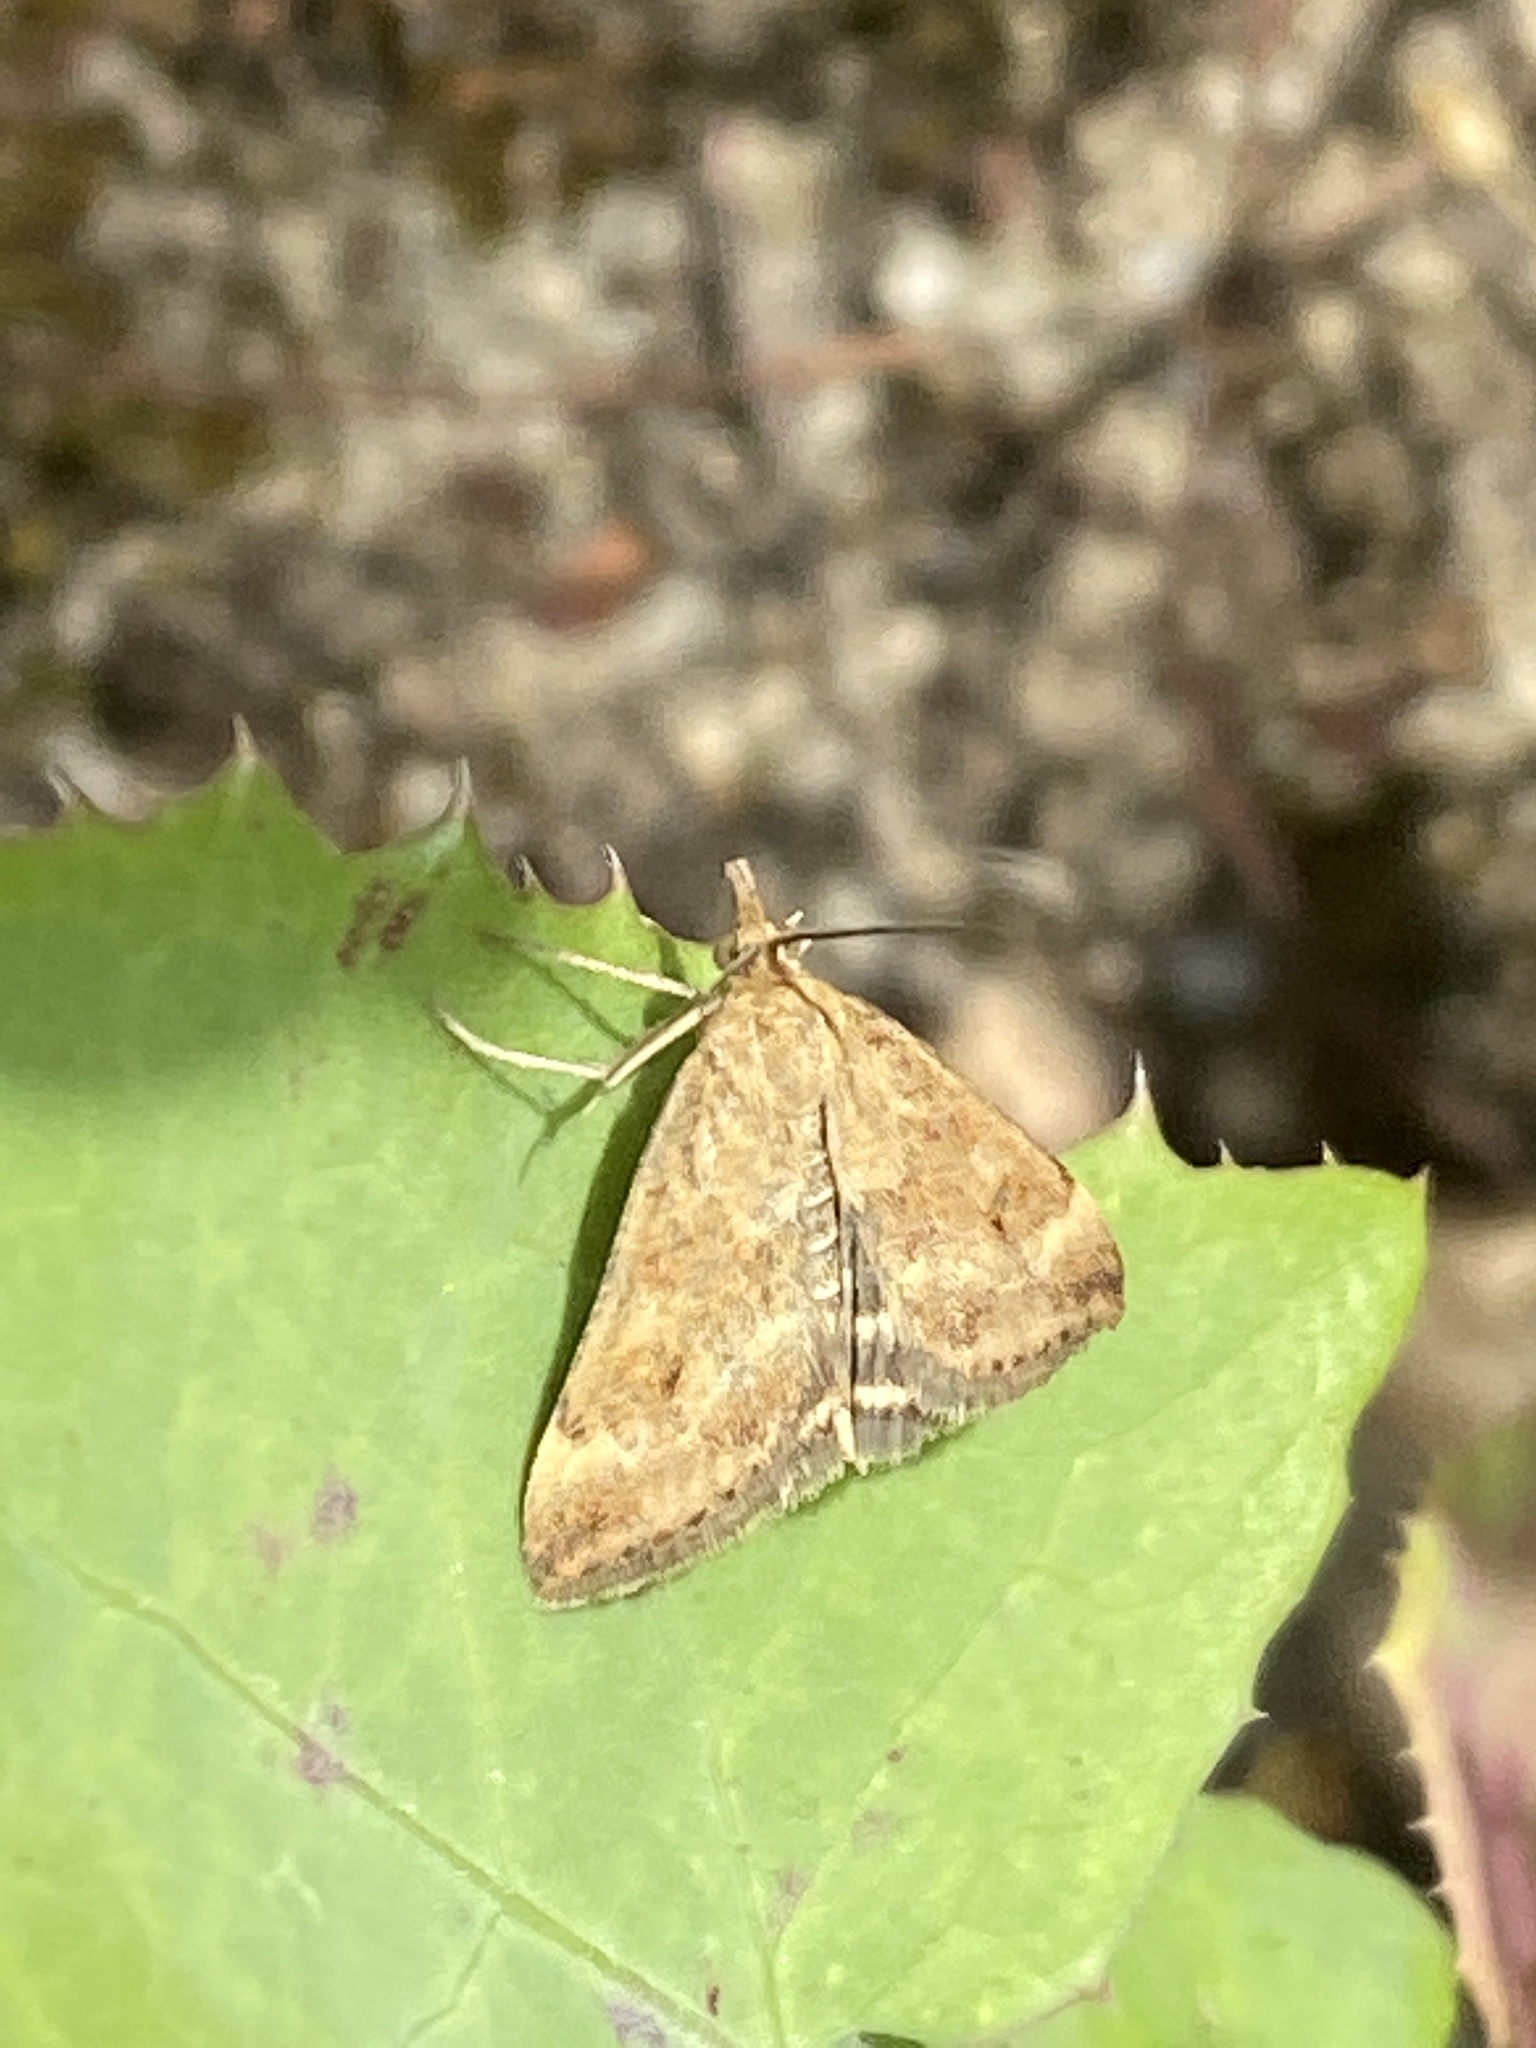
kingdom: Animalia
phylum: Arthropoda
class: Insecta
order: Lepidoptera
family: Crambidae
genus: Pyrausta
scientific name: Pyrausta despicata
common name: Straw-barred pearl
